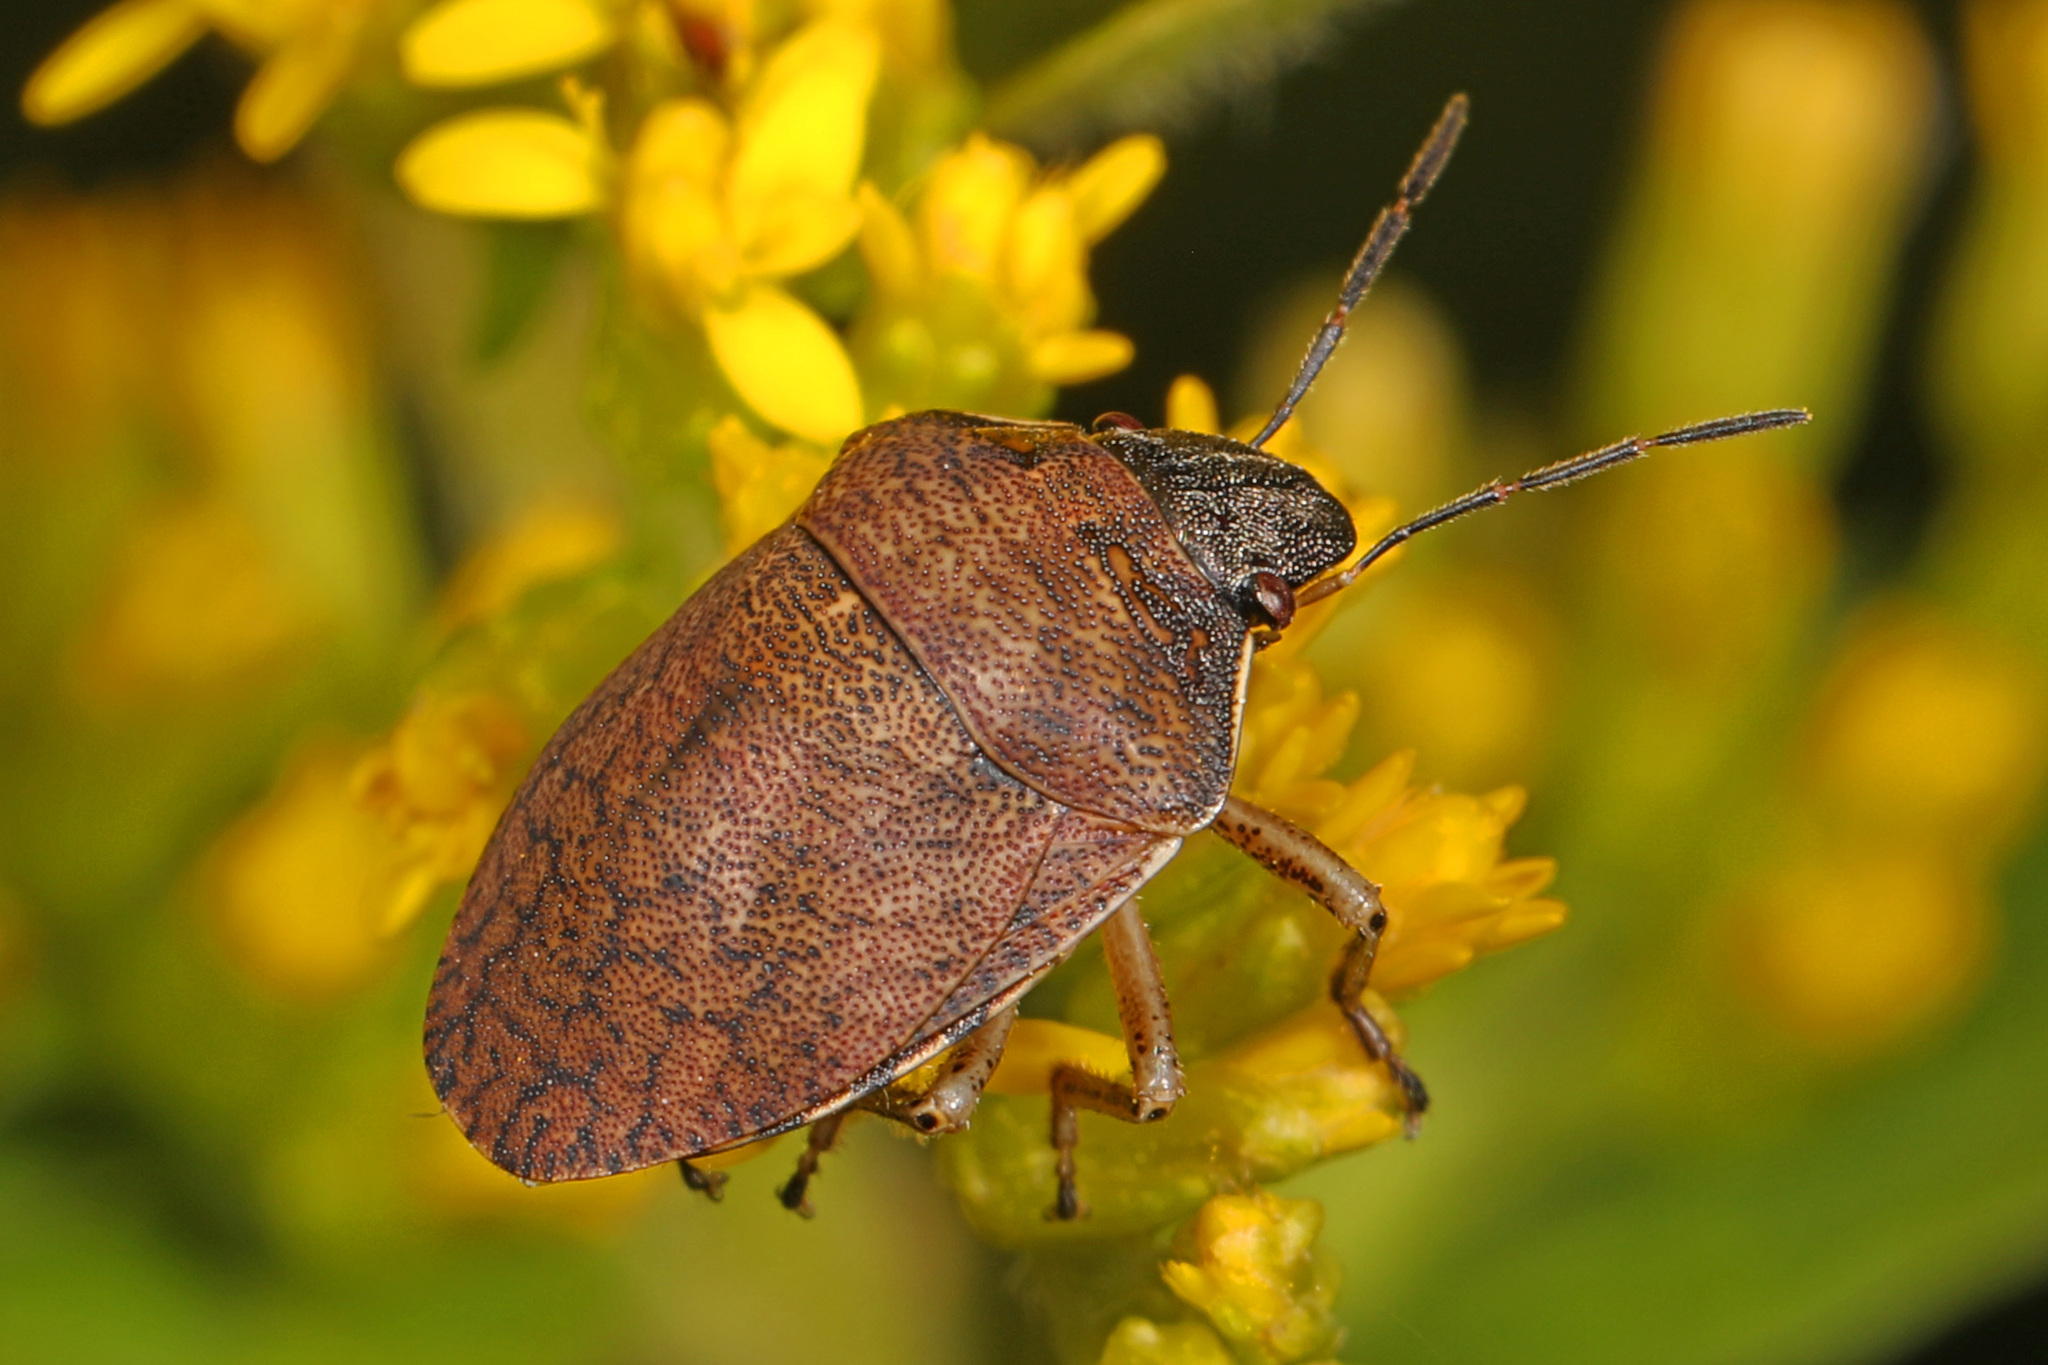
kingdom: Animalia
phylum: Arthropoda
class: Insecta
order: Hemiptera
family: Scutelleridae
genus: Homaemus
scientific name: Homaemus aeneifrons
